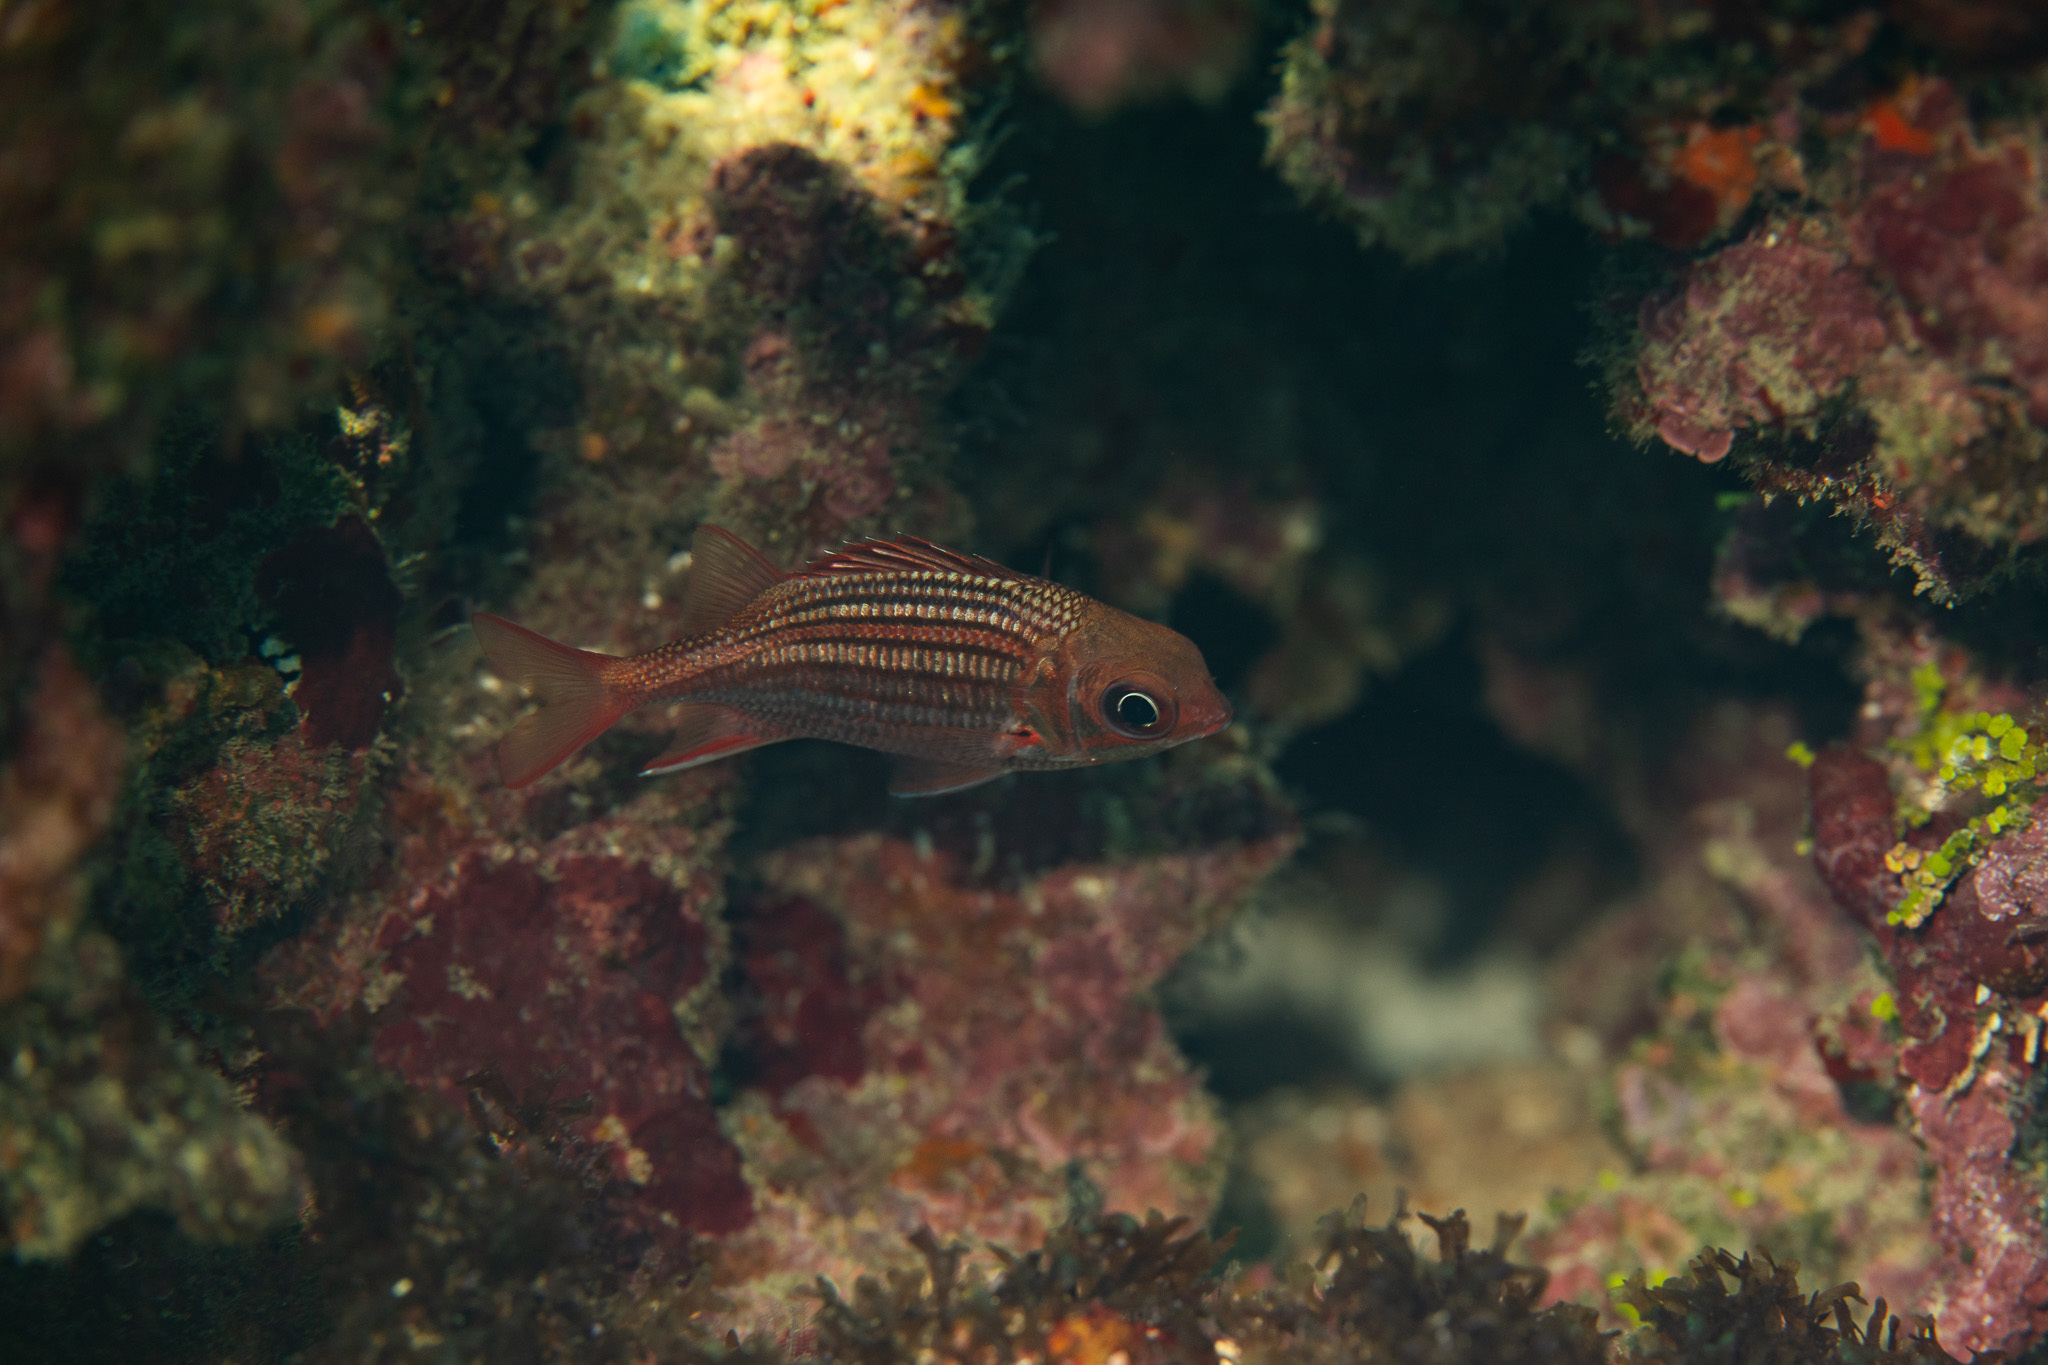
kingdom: Animalia
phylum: Chordata
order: Beryciformes
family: Holocentridae
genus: Neoniphon
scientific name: Neoniphon vexillarium
